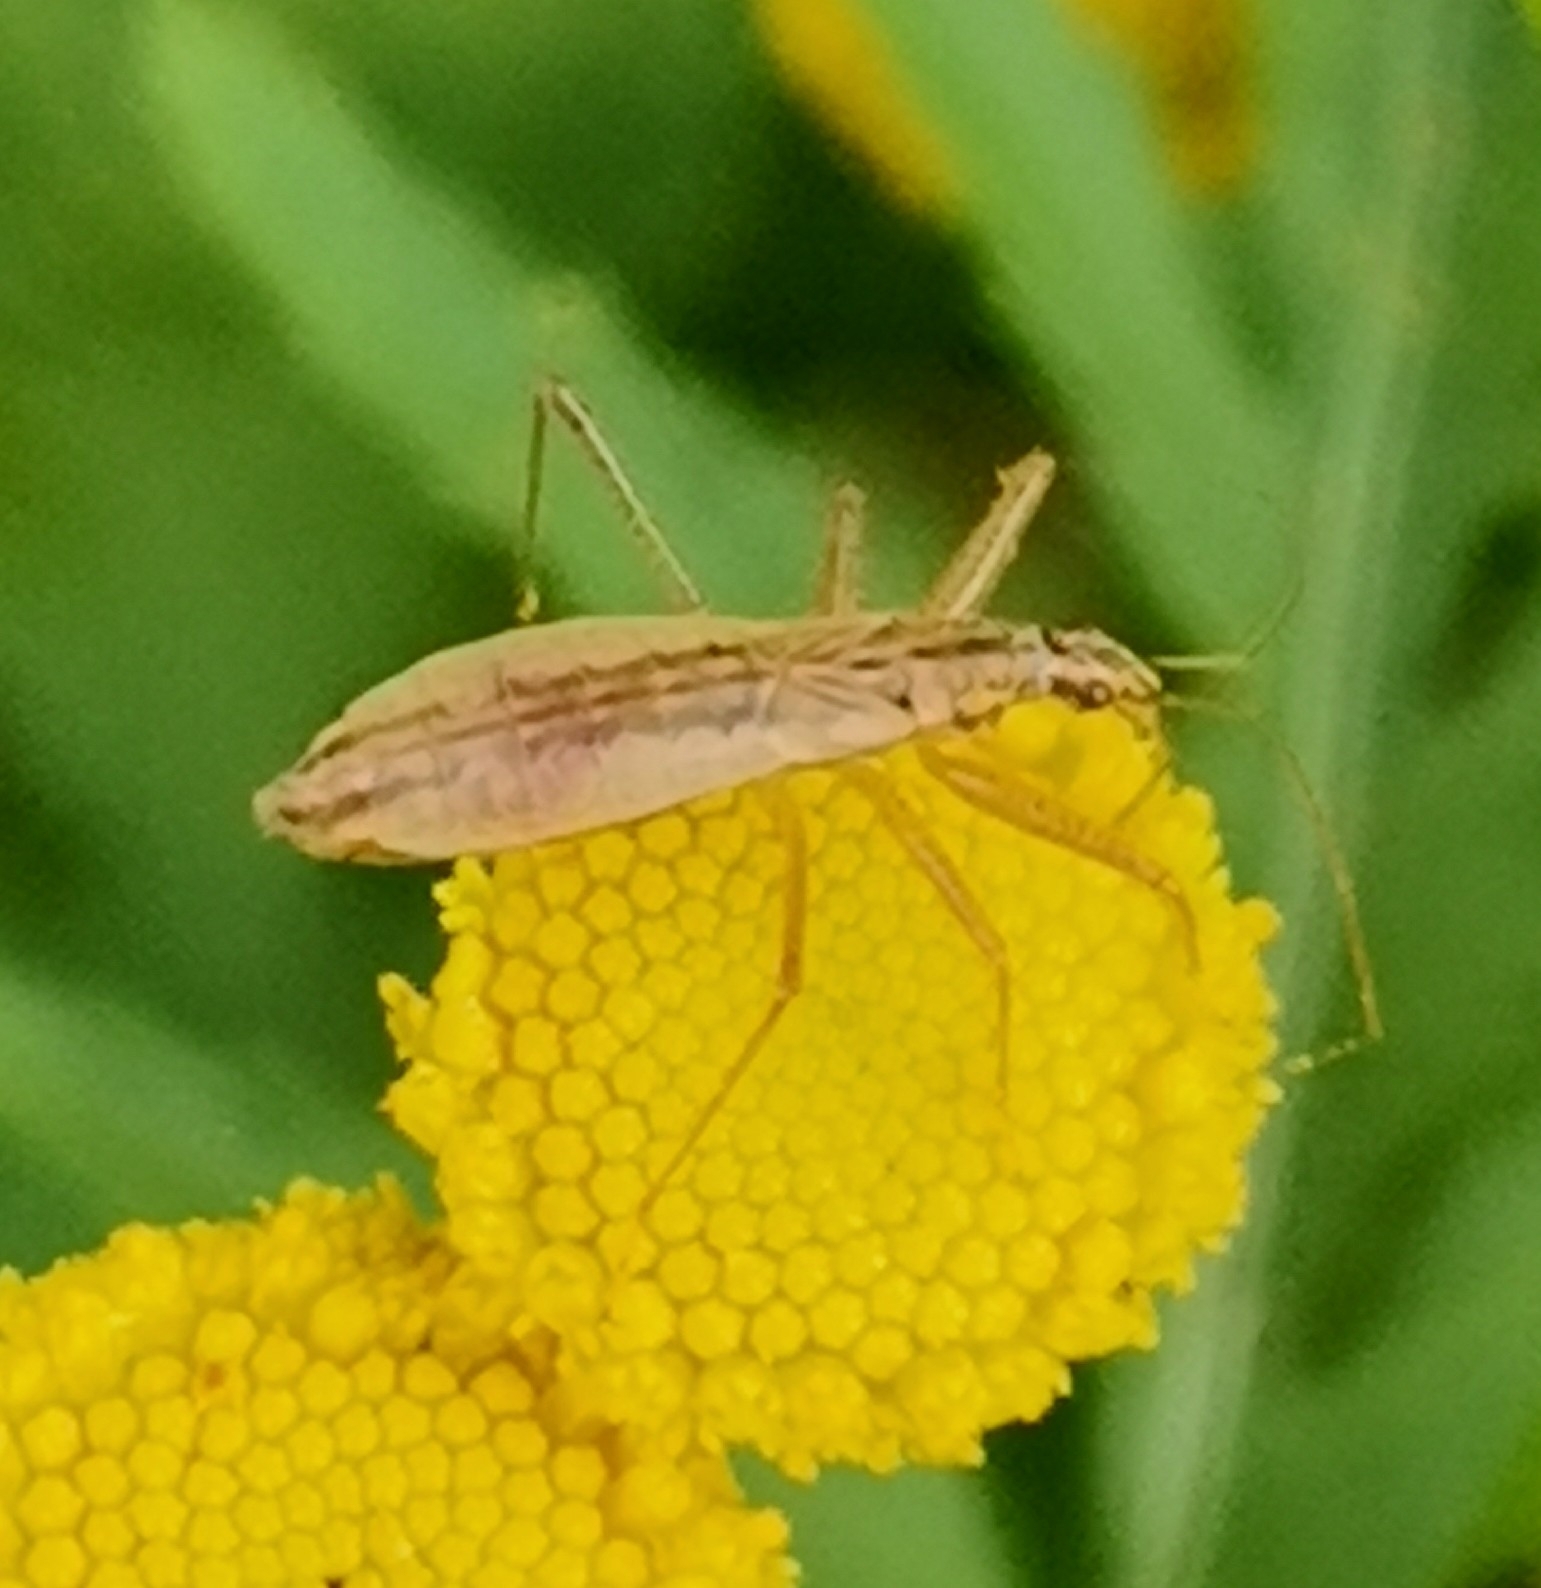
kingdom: Animalia
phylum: Arthropoda
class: Insecta
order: Hemiptera
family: Nabidae
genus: Nabis
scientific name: Nabis limbatus
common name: Marsh damselbug
